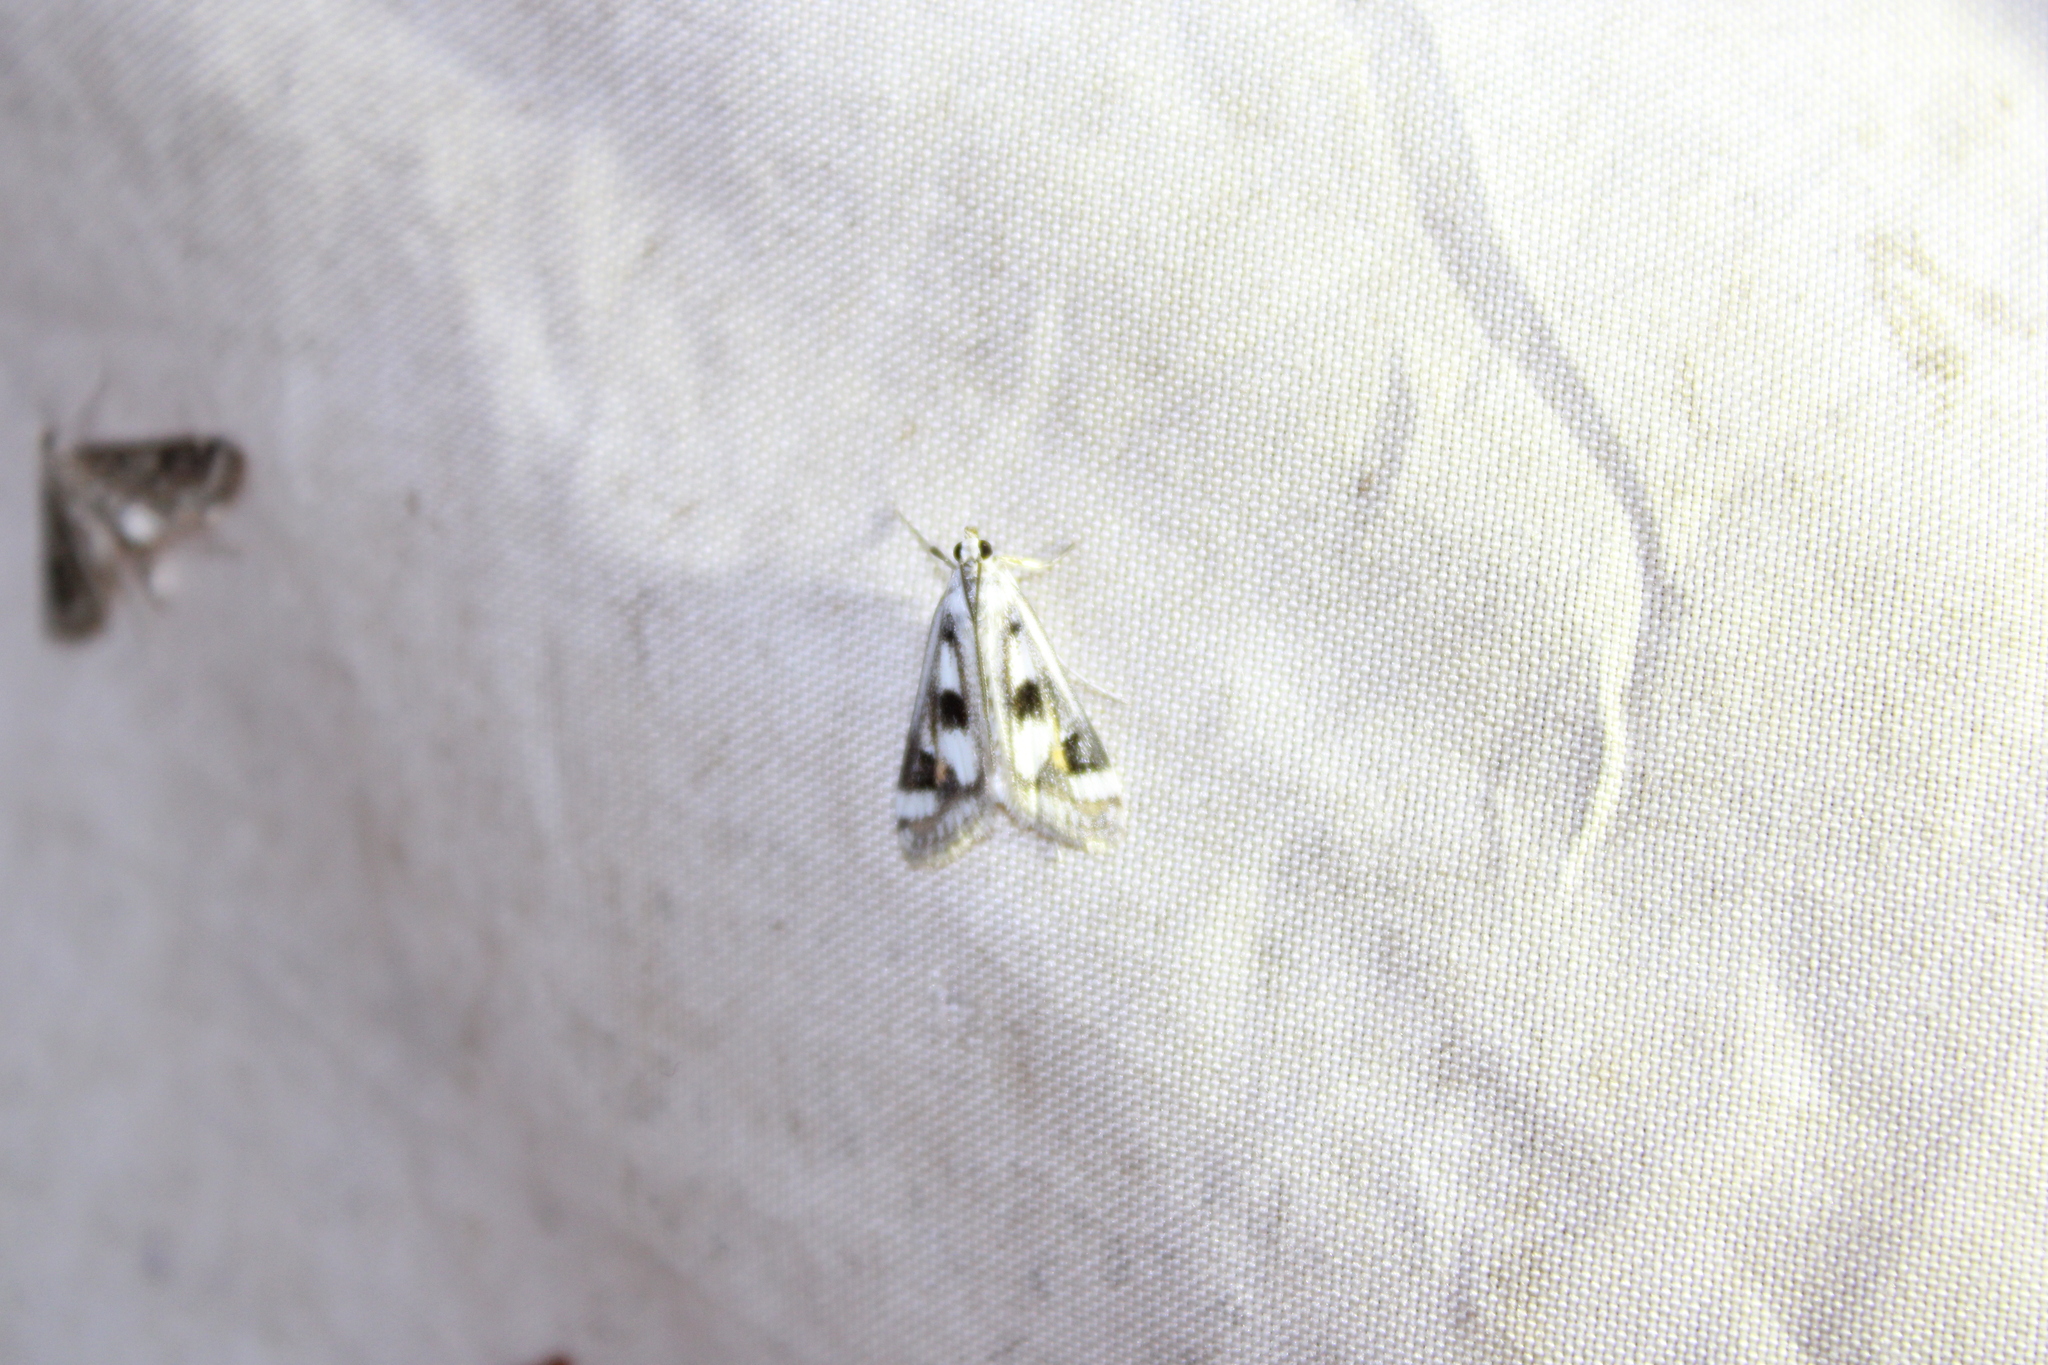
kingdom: Animalia
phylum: Arthropoda
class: Insecta
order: Lepidoptera
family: Crambidae
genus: Parapoynx
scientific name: Parapoynx maculalis
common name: Polymorphic pondweed moth
